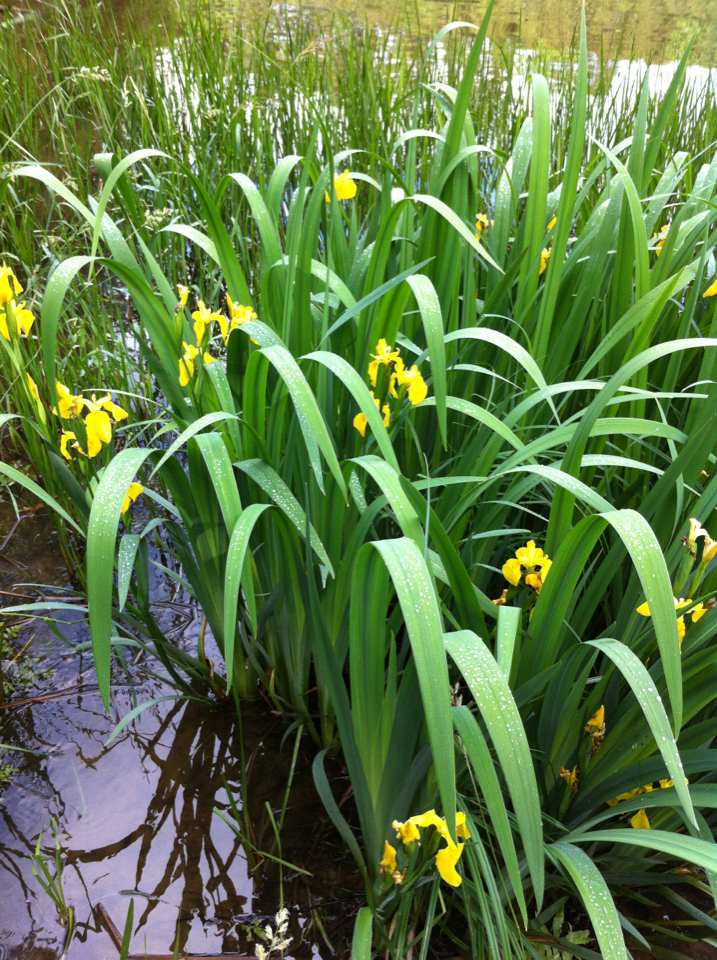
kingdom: Plantae
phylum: Tracheophyta
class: Liliopsida
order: Asparagales
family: Iridaceae
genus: Iris
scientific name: Iris pseudacorus
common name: Yellow flag
